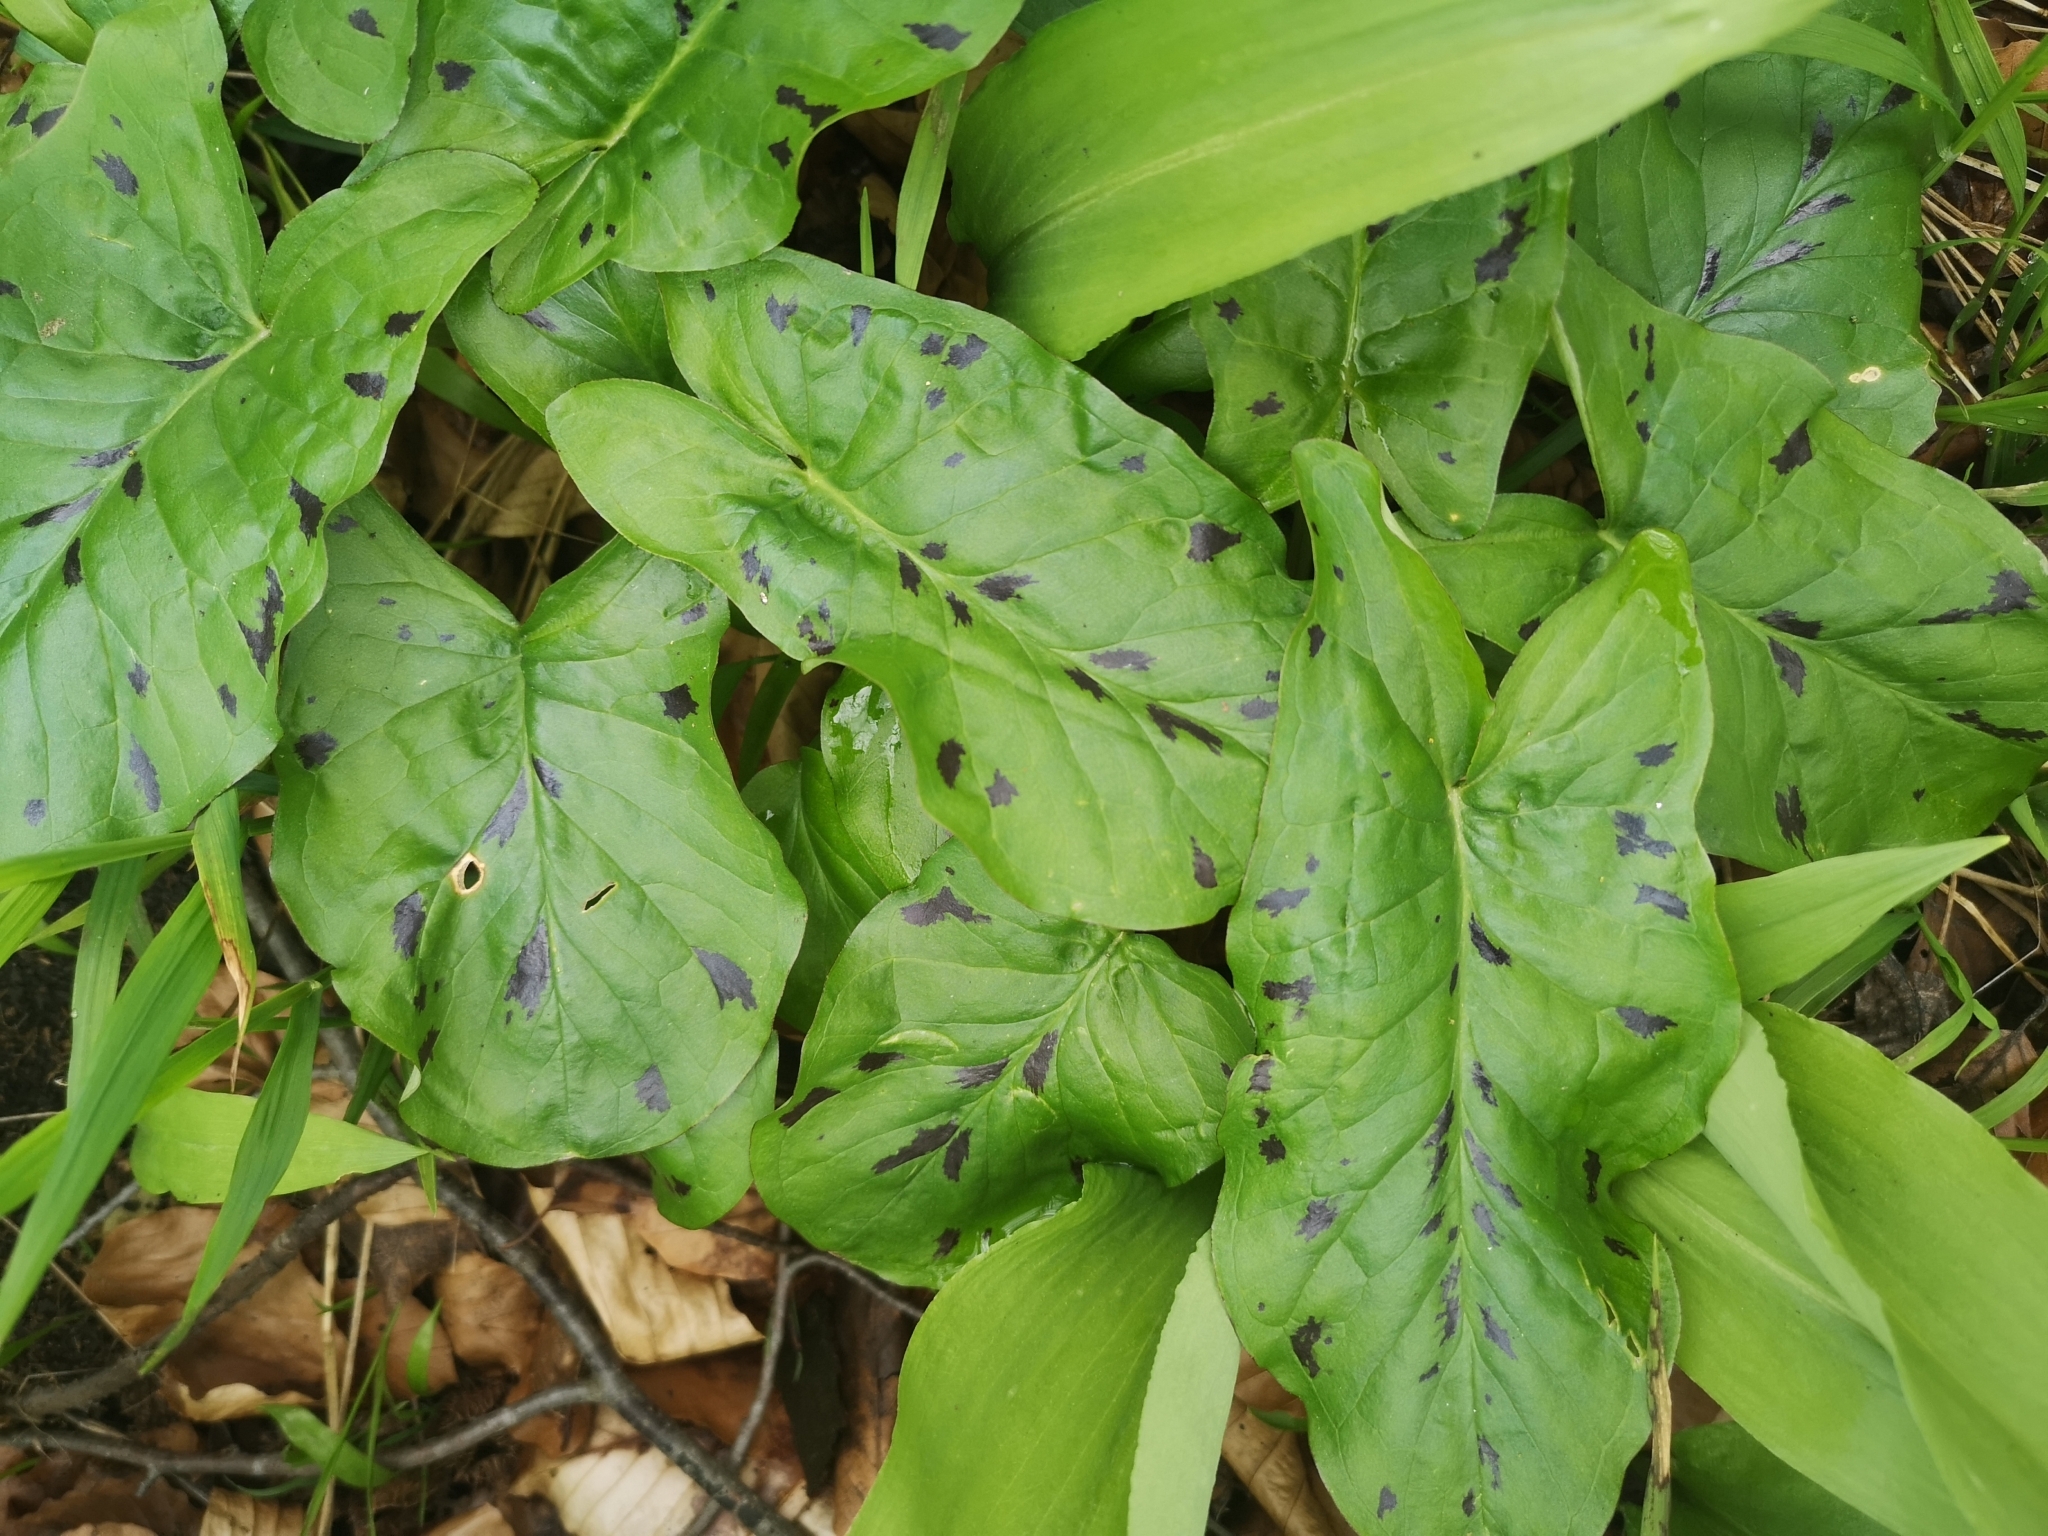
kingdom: Plantae
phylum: Tracheophyta
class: Liliopsida
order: Alismatales
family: Araceae
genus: Arum
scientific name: Arum maculatum
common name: Lords-and-ladies
